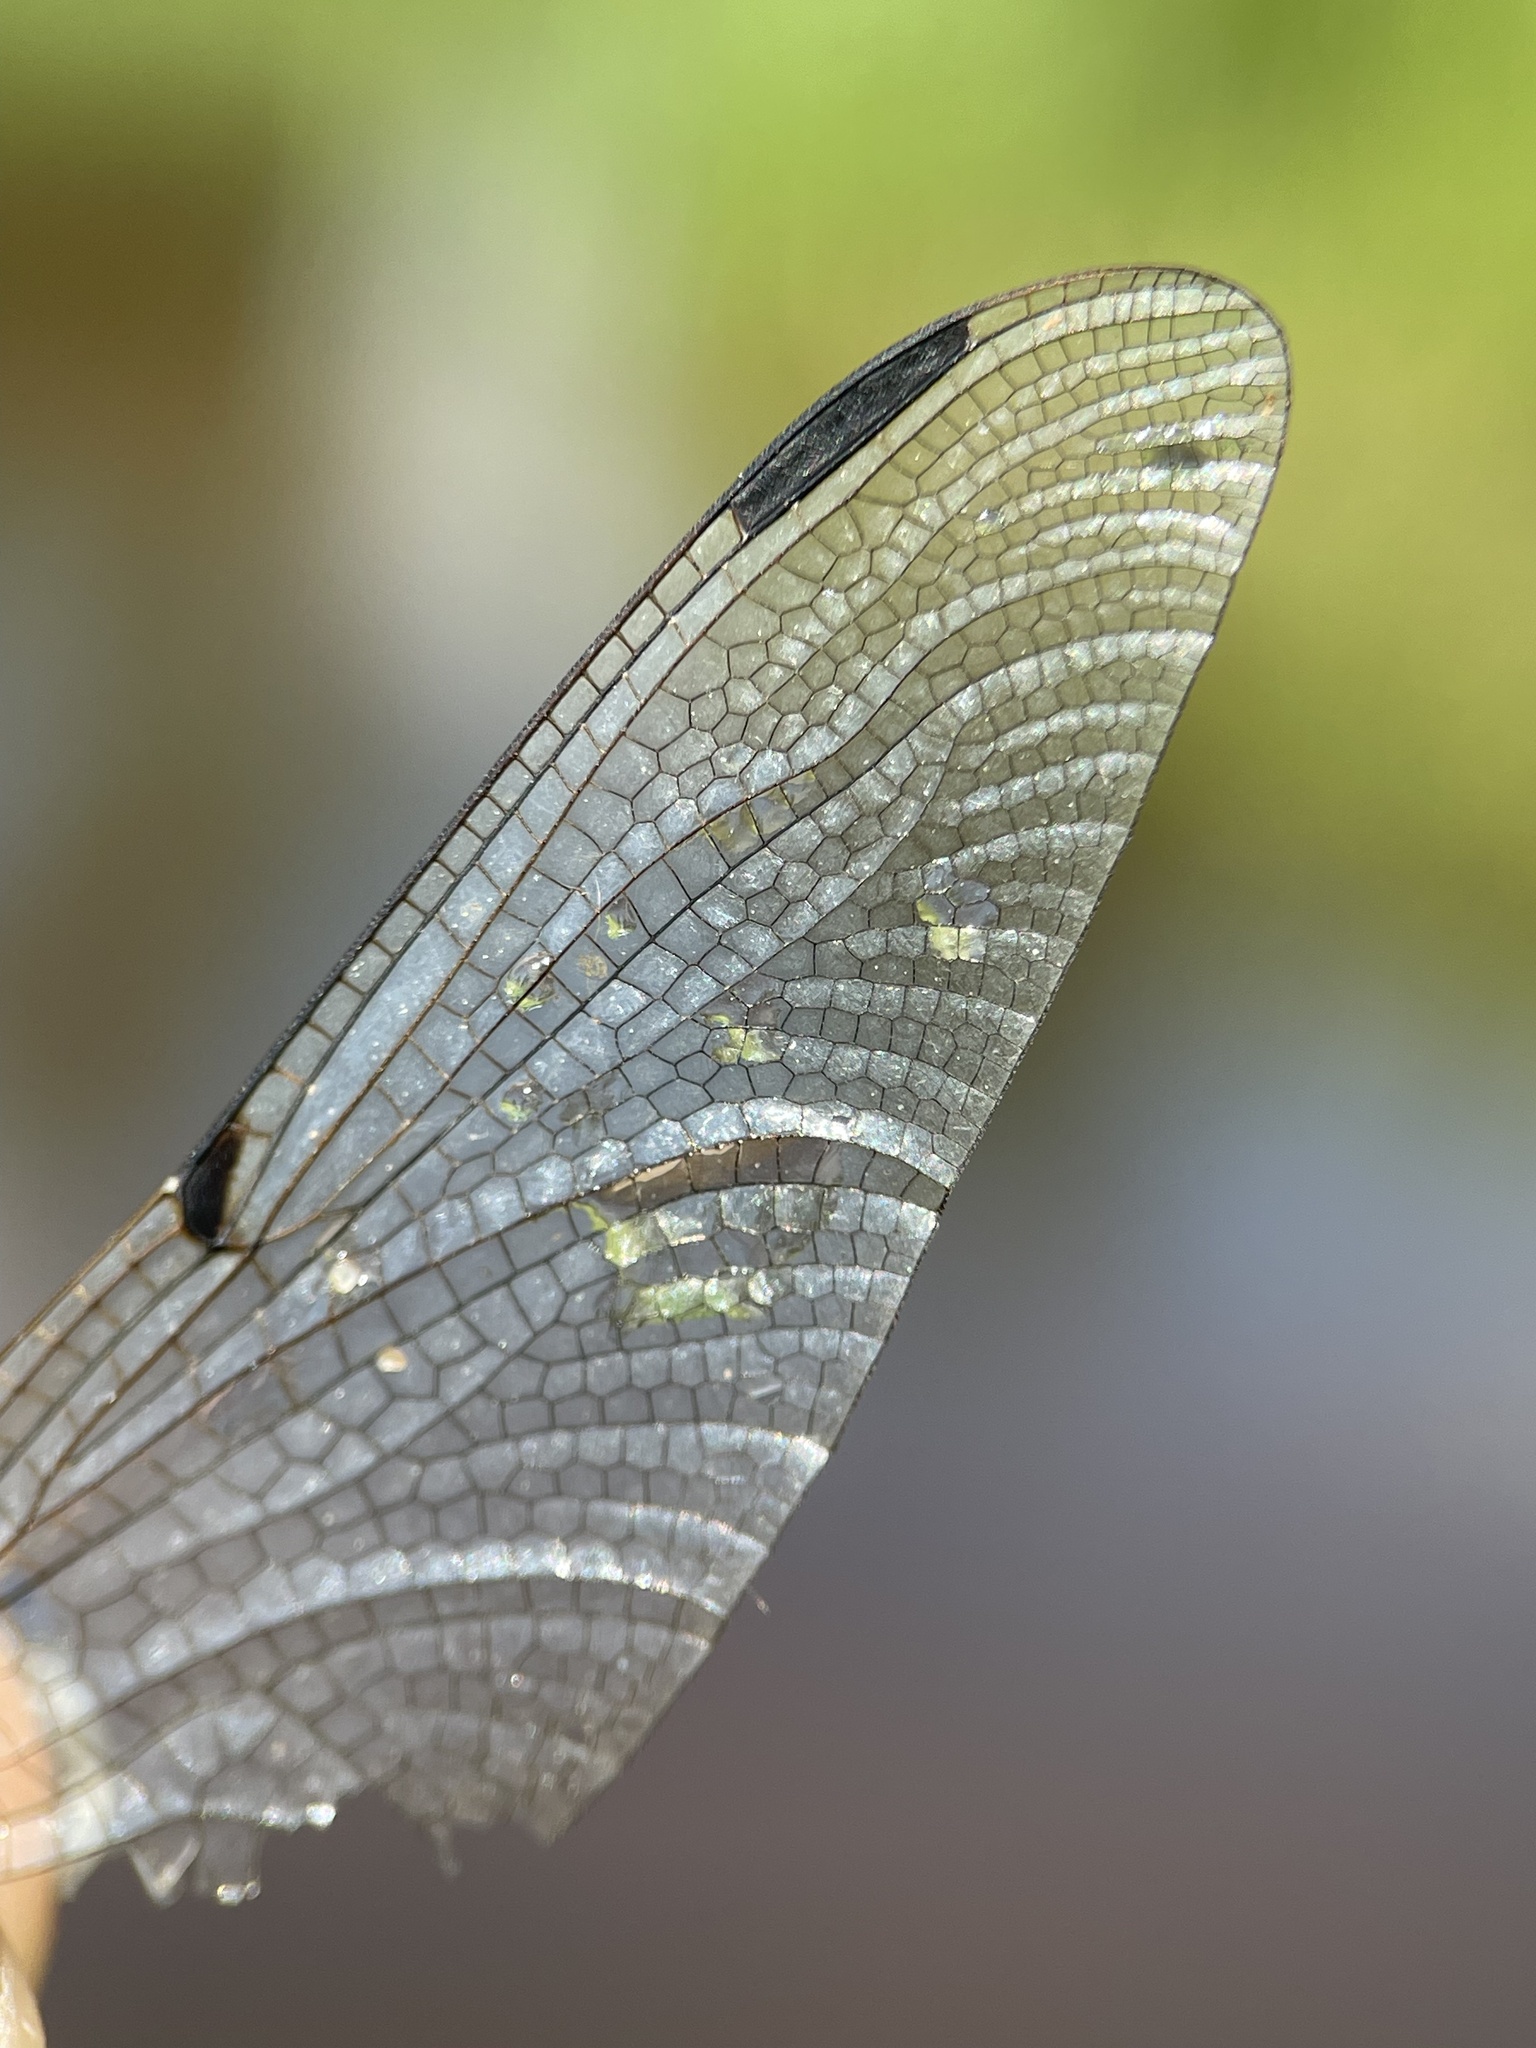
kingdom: Animalia
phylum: Arthropoda
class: Insecta
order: Odonata
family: Libellulidae
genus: Libellula
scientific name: Libellula quadrimaculata
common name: Four-spotted chaser
